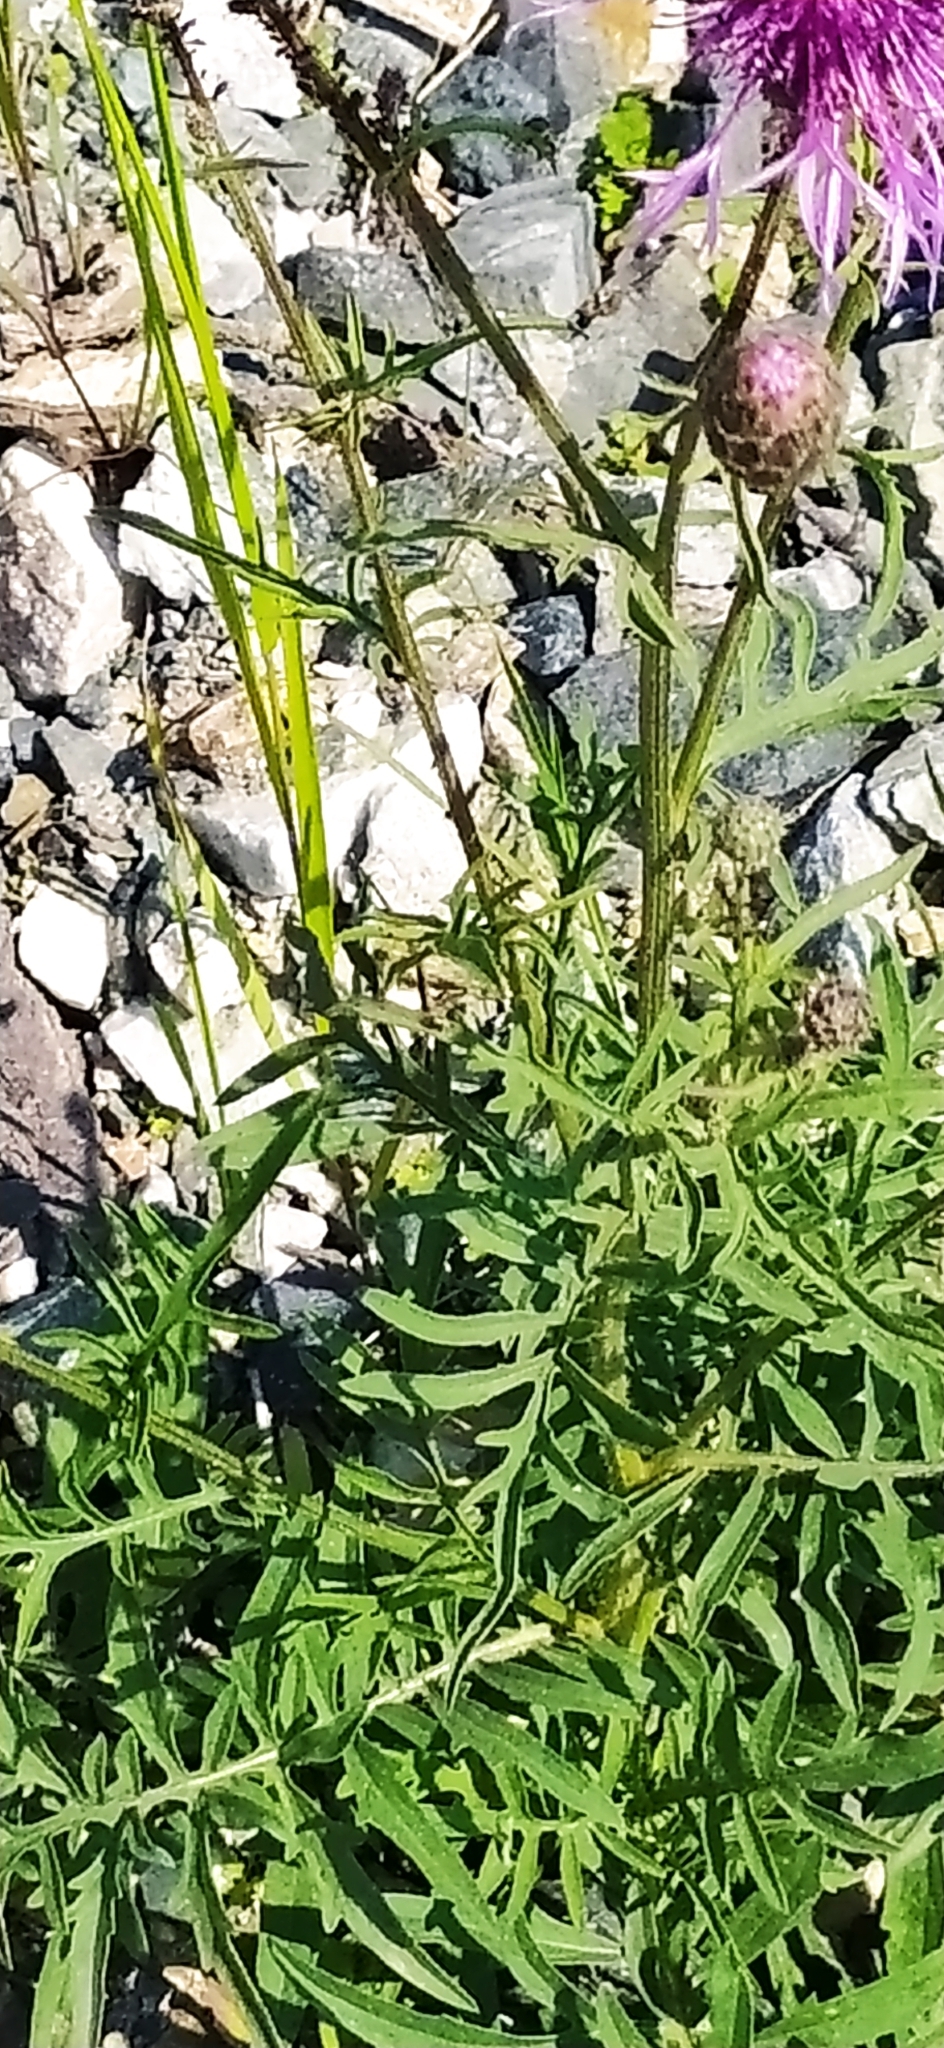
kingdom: Plantae
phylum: Tracheophyta
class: Magnoliopsida
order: Asterales
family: Asteraceae
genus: Centaurea
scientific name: Centaurea scabiosa
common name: Greater knapweed
